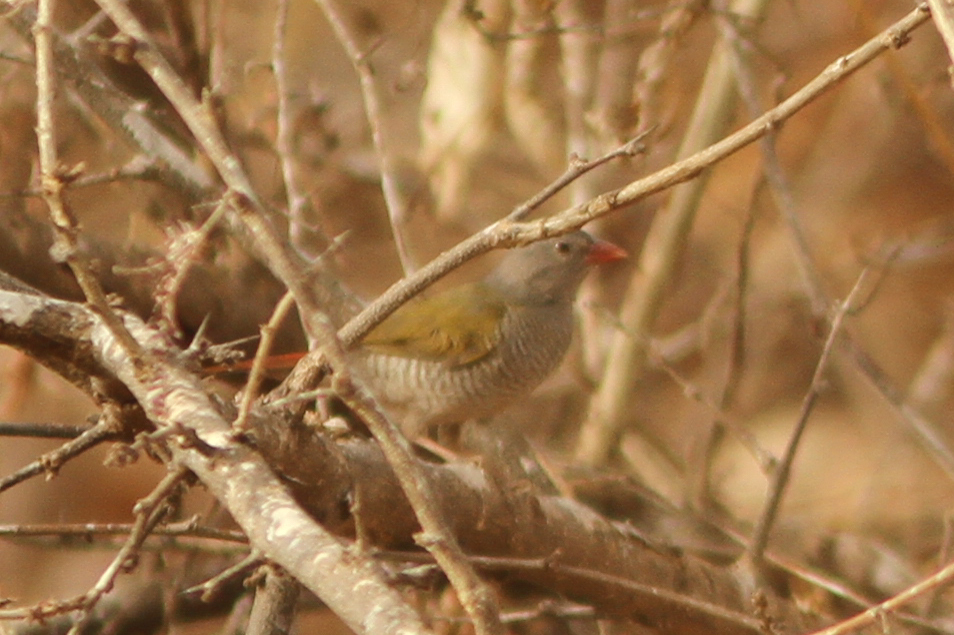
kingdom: Animalia
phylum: Chordata
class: Aves
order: Passeriformes
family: Estrildidae
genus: Pytilia
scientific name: Pytilia melba
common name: Green-winged pytilia
